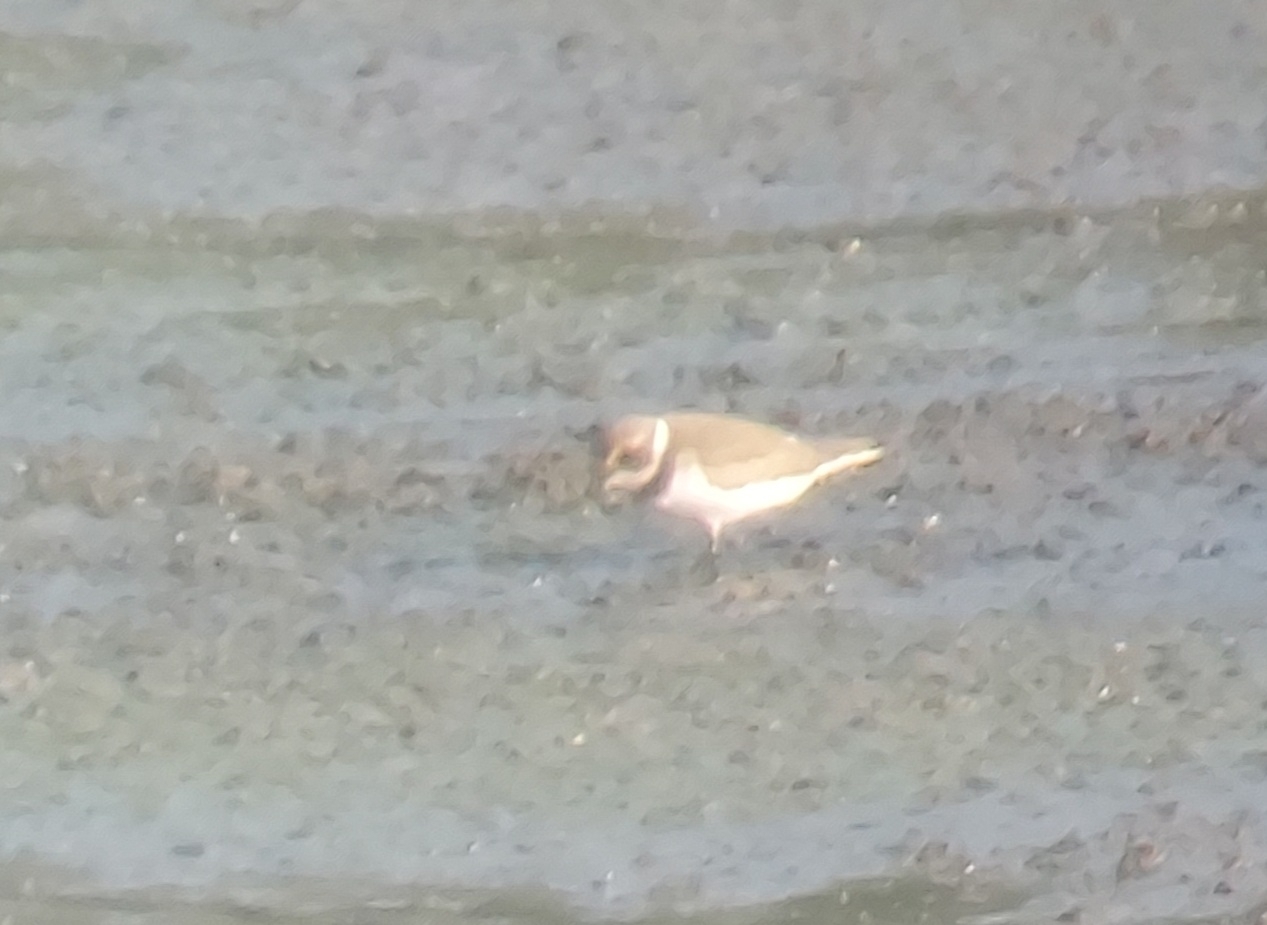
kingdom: Animalia
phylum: Chordata
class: Aves
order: Charadriiformes
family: Charadriidae
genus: Charadrius
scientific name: Charadrius semipalmatus
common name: Semipalmated plover
